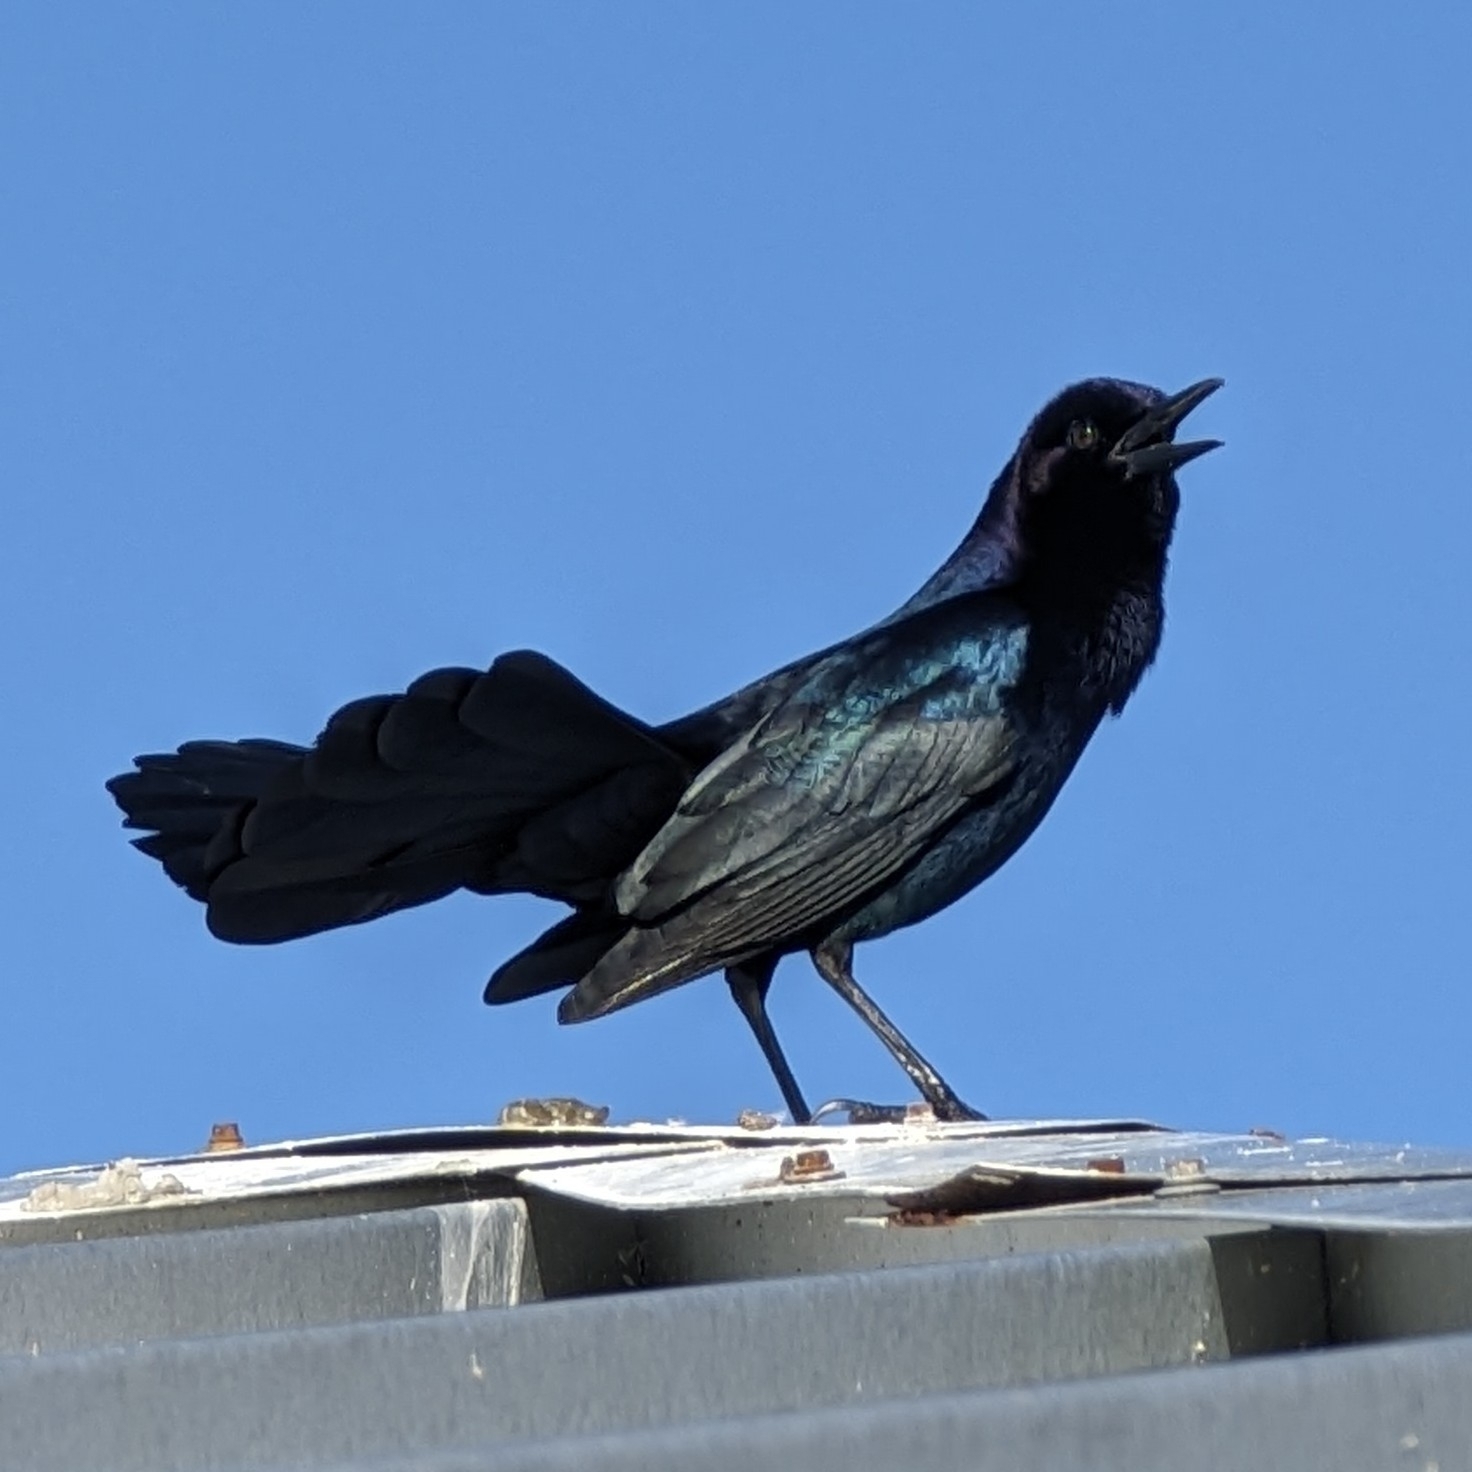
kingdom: Animalia
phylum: Chordata
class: Aves
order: Passeriformes
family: Icteridae
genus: Quiscalus
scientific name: Quiscalus major
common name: Boat-tailed grackle
